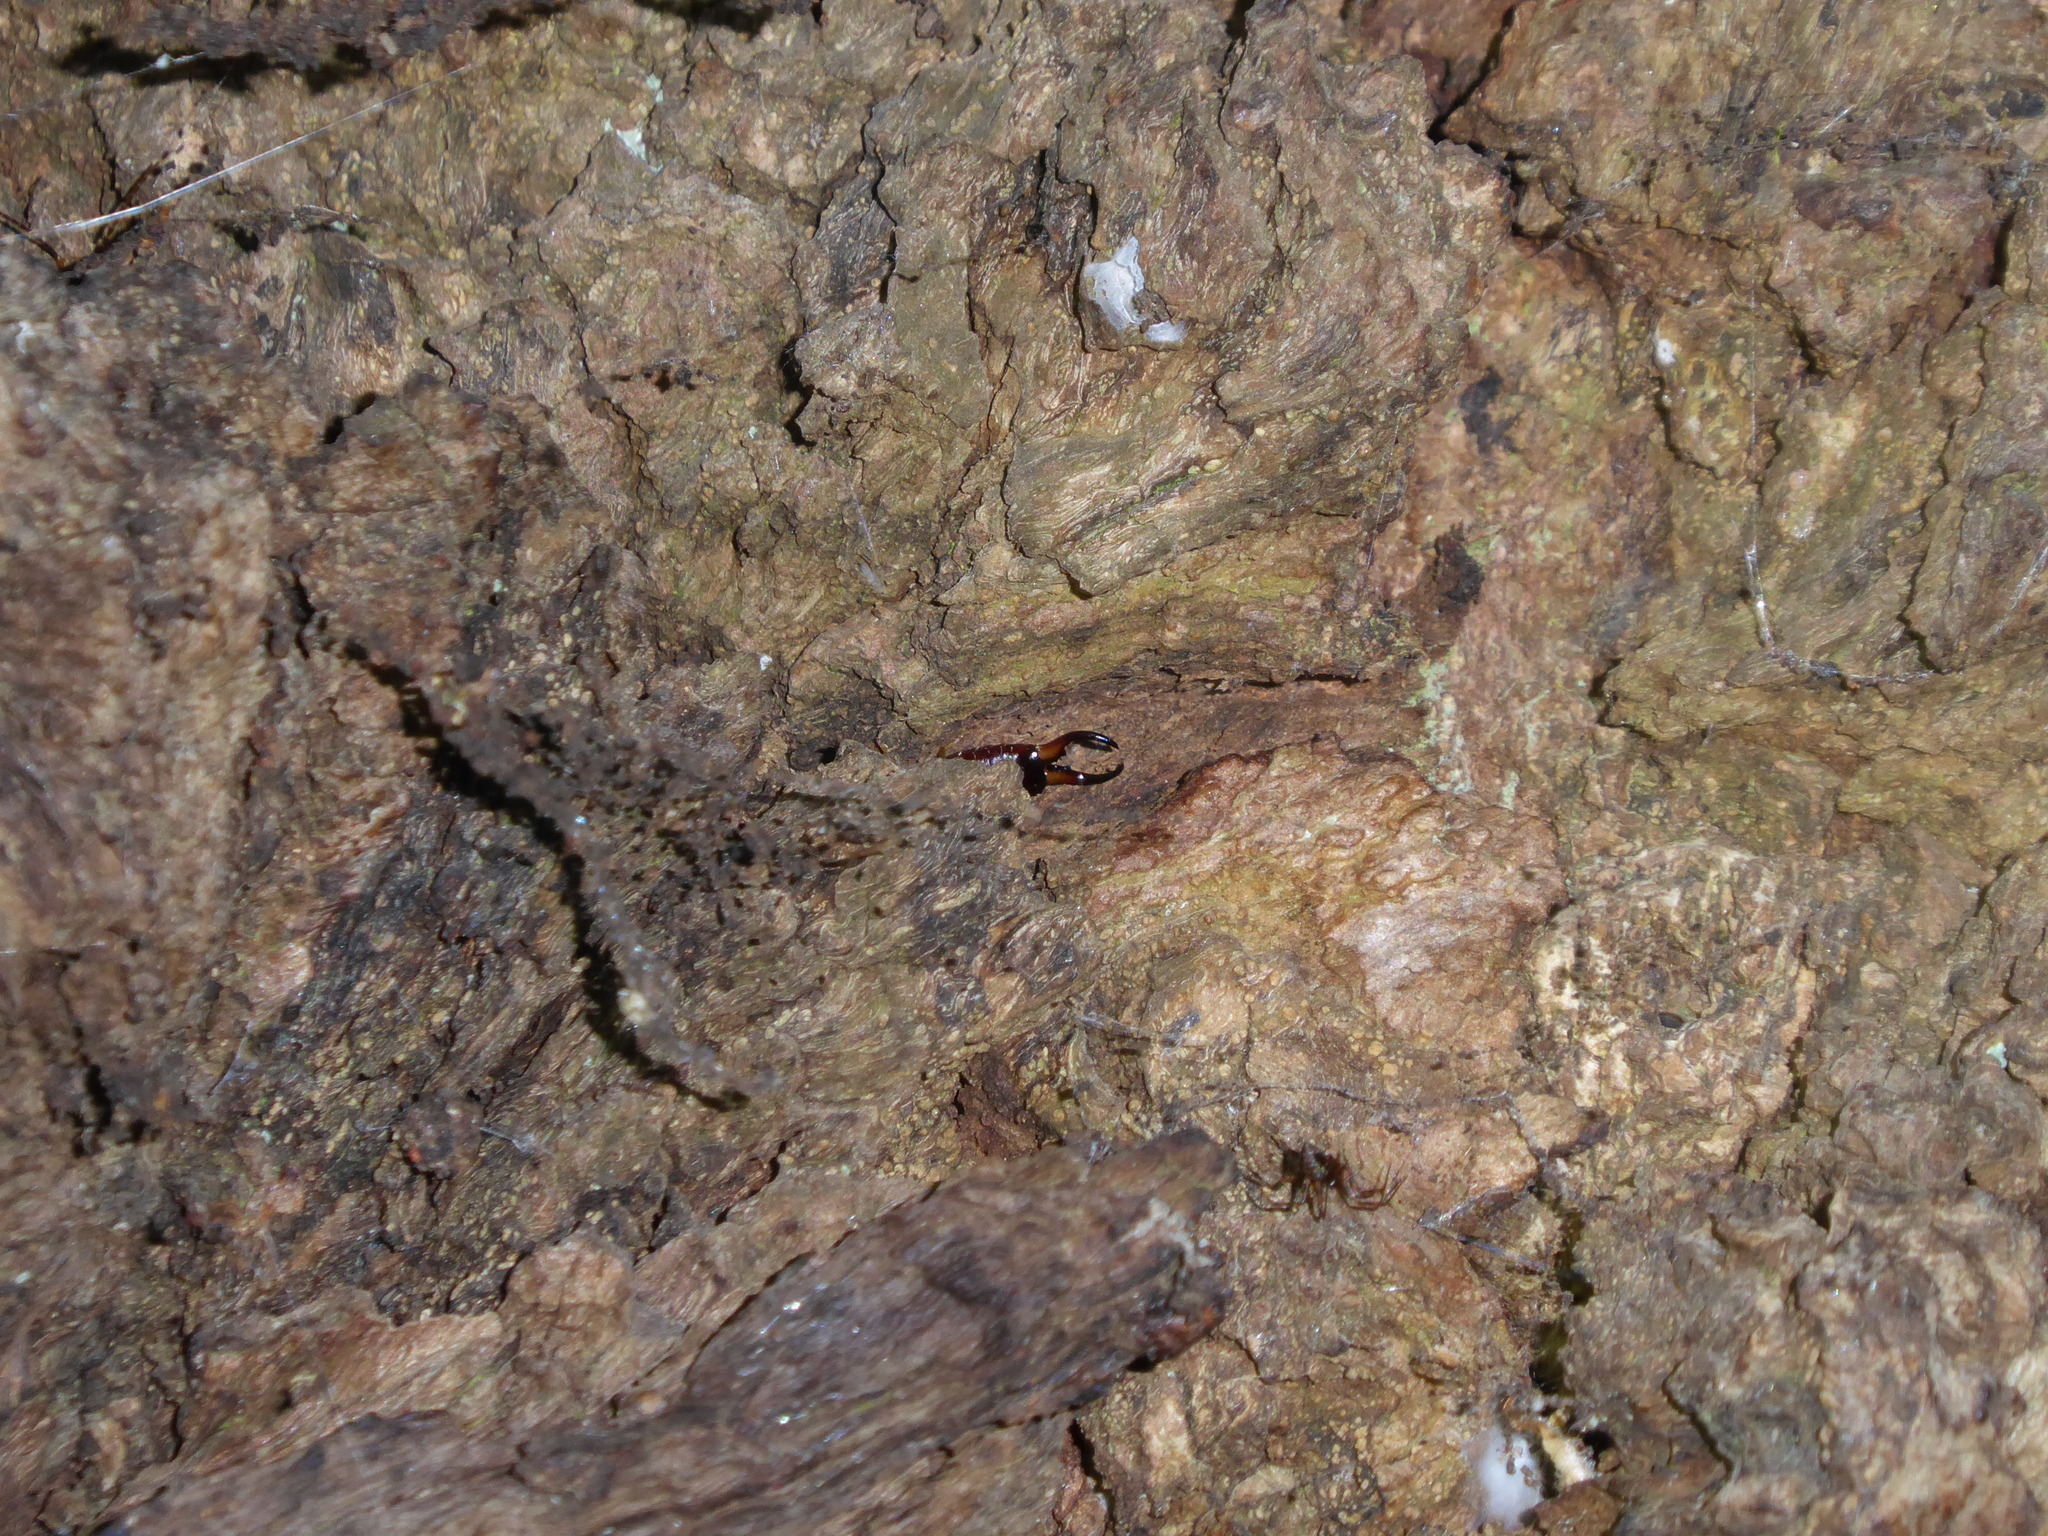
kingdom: Animalia
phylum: Arthropoda
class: Insecta
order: Dermaptera
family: Forficulidae
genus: Forficula
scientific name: Forficula
